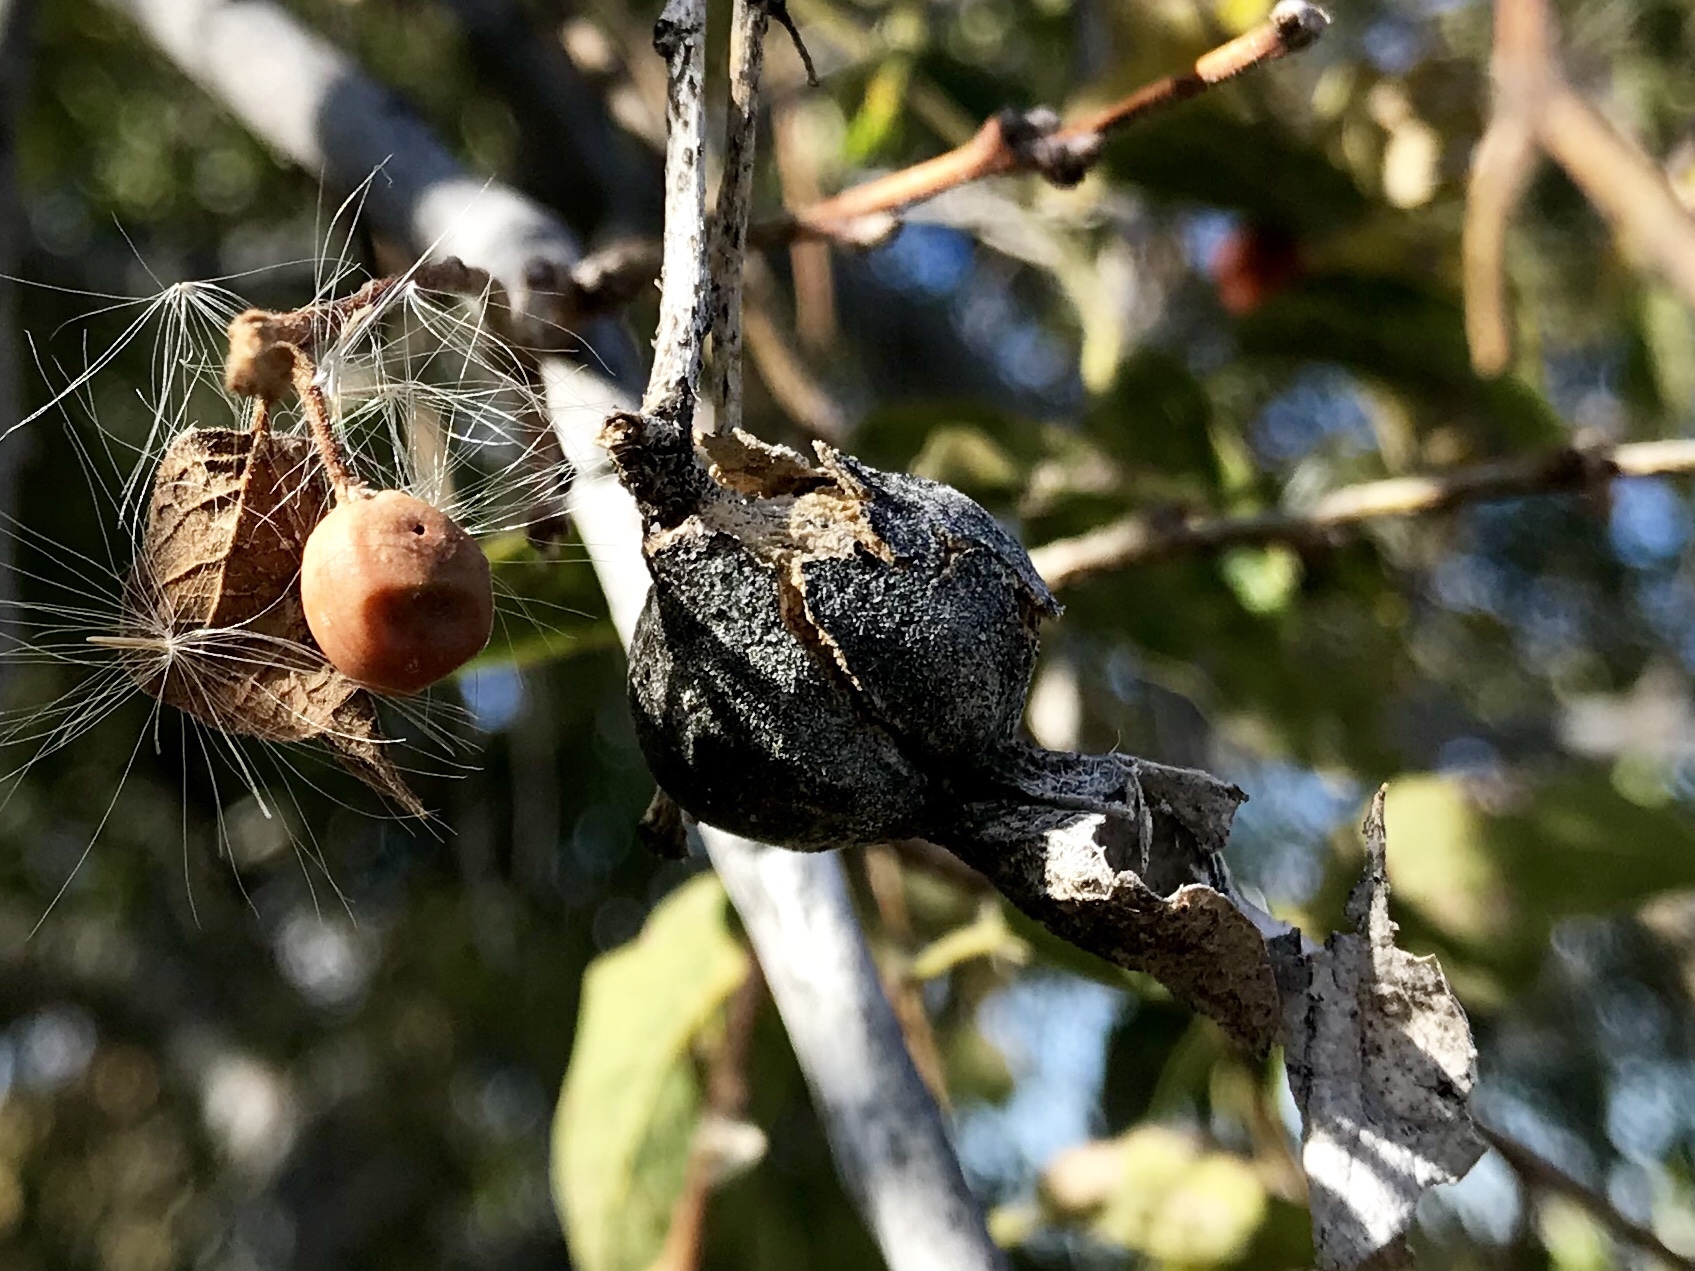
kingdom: Animalia
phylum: Arthropoda
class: Insecta
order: Hemiptera
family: Aphalaridae
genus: Pachypsylla
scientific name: Pachypsylla venusta
